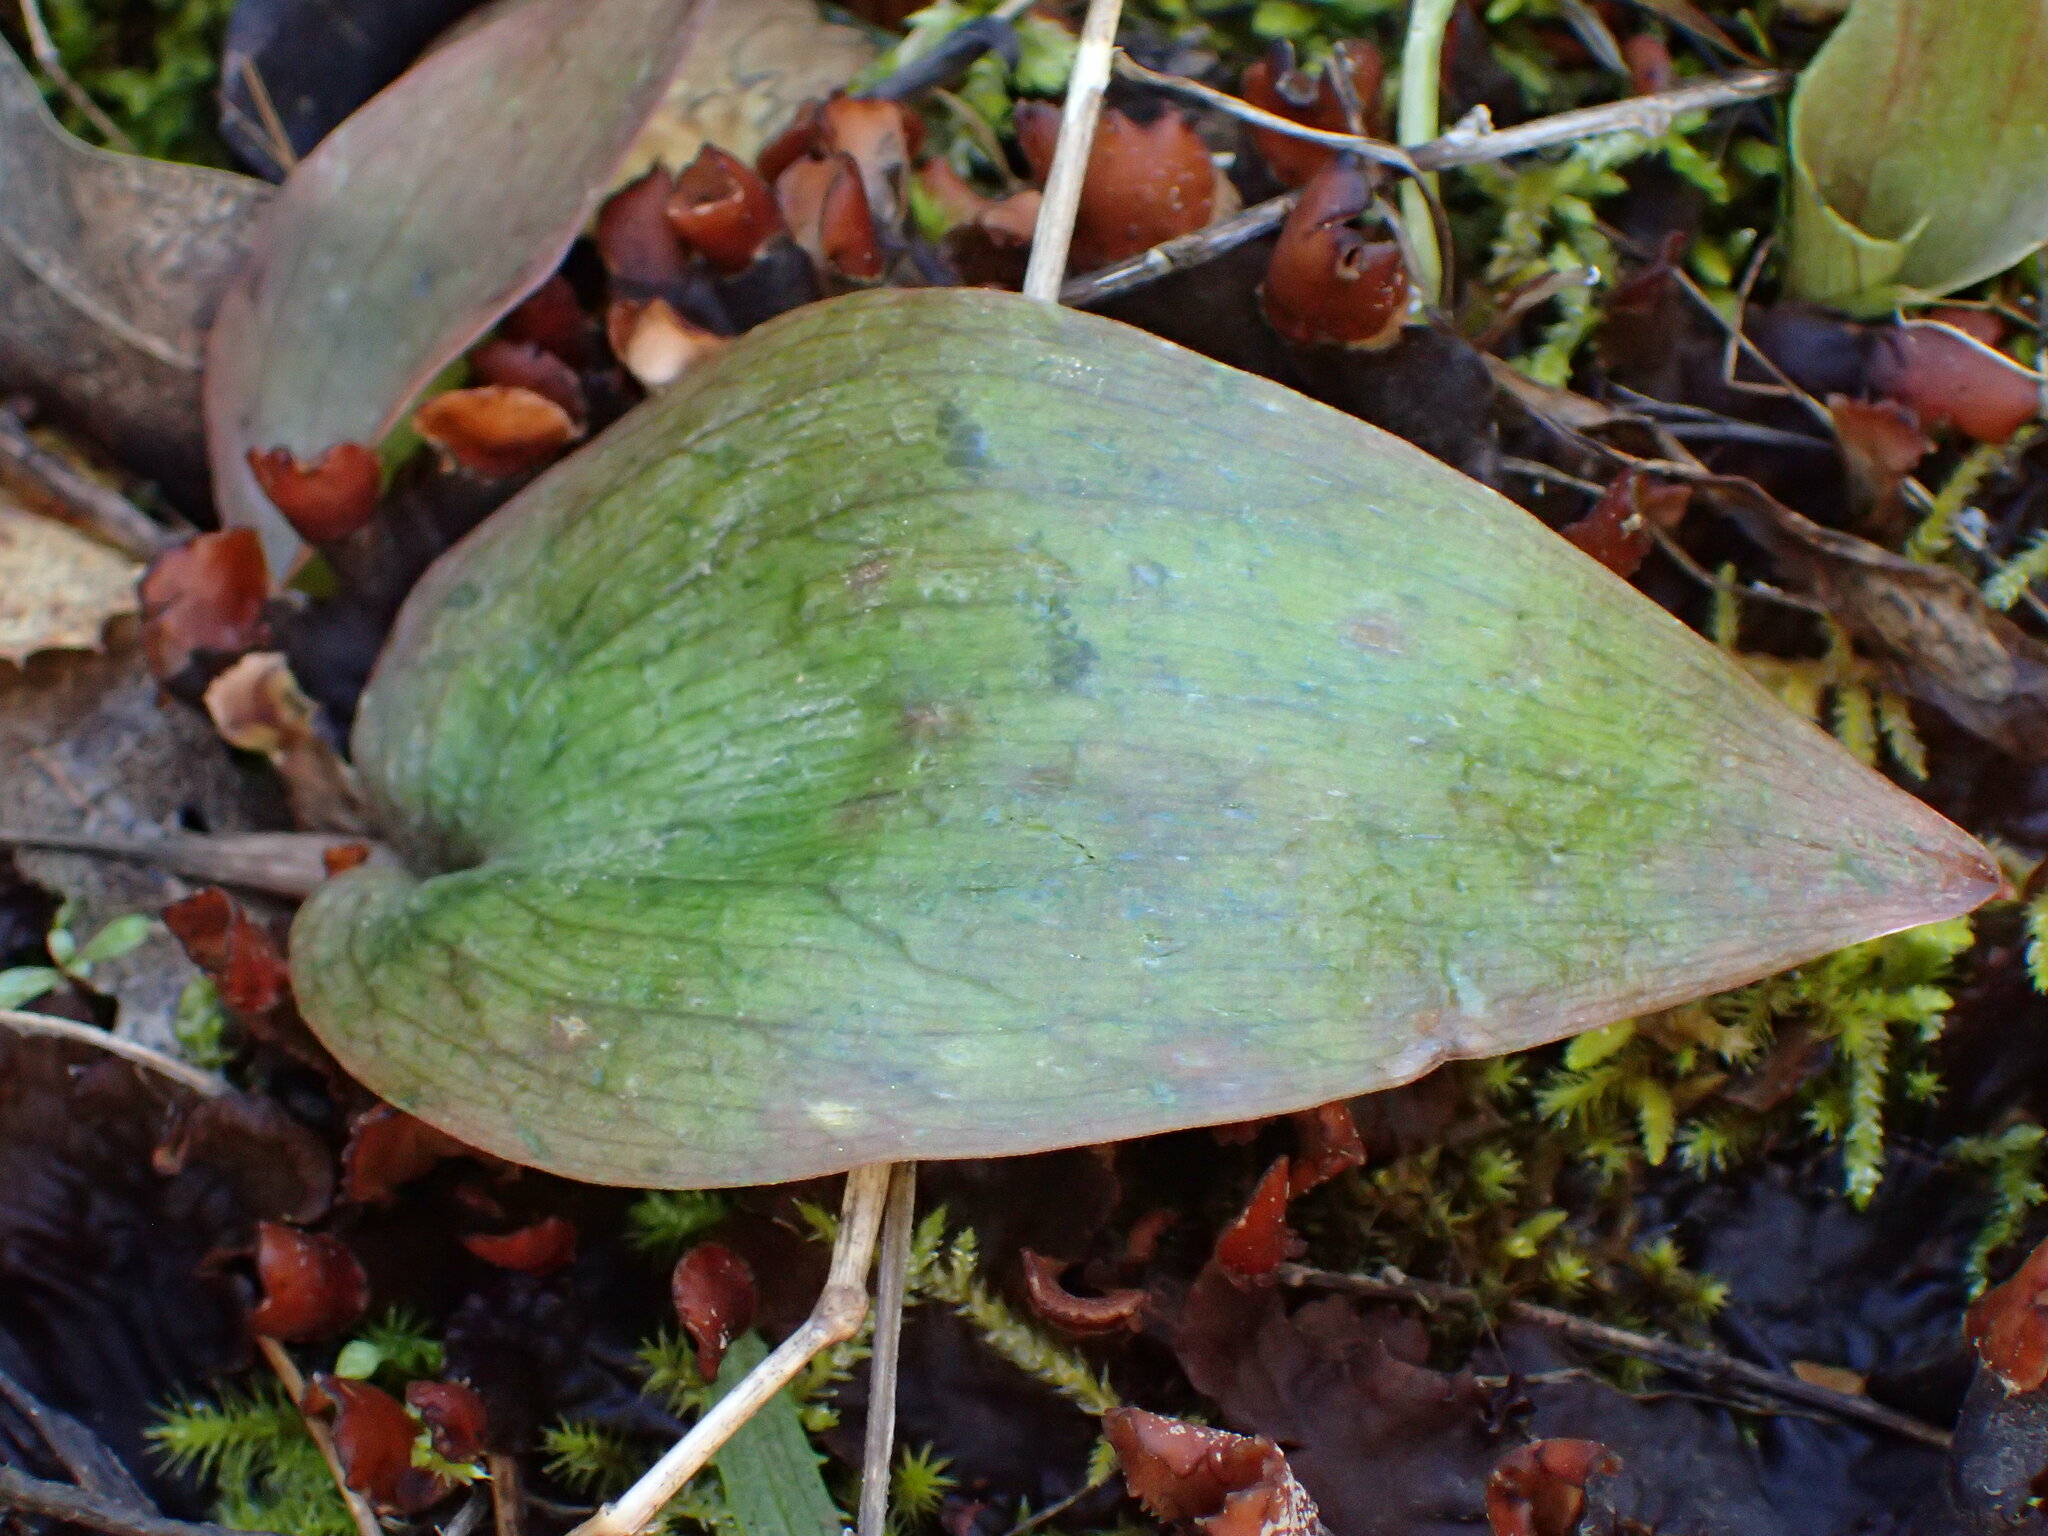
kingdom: Plantae
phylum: Tracheophyta
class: Liliopsida
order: Liliales
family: Liliaceae
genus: Fritillaria
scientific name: Fritillaria ojaiensis
